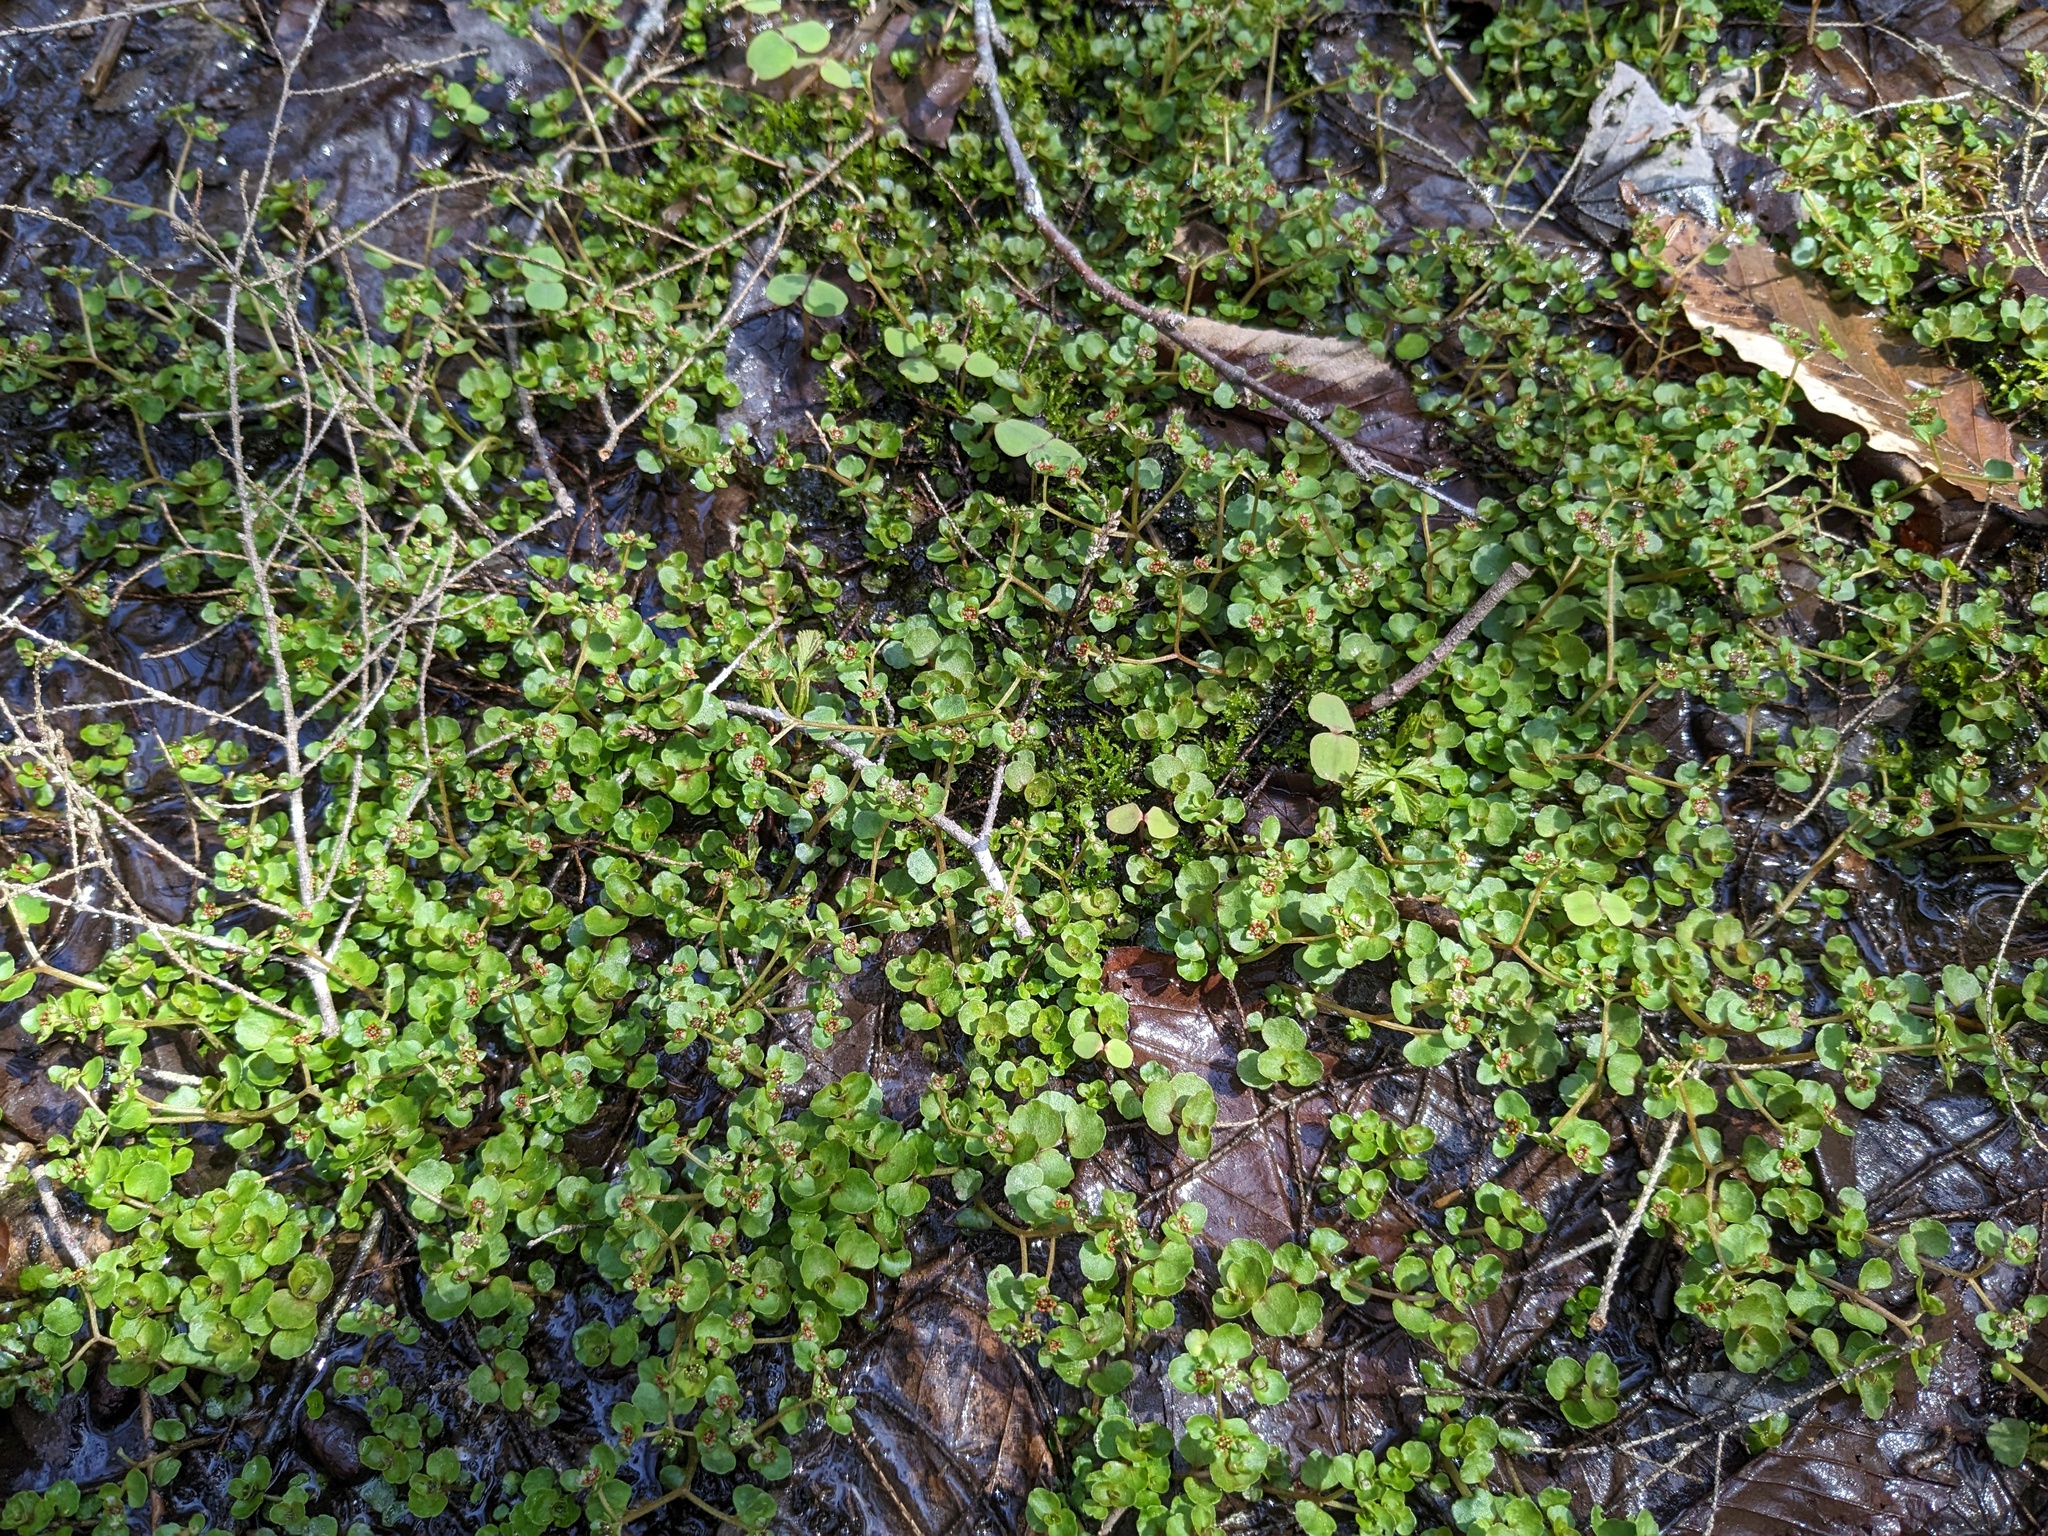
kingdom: Plantae
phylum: Tracheophyta
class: Magnoliopsida
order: Saxifragales
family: Saxifragaceae
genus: Chrysosplenium
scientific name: Chrysosplenium americanum
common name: American golden-saxifrage
